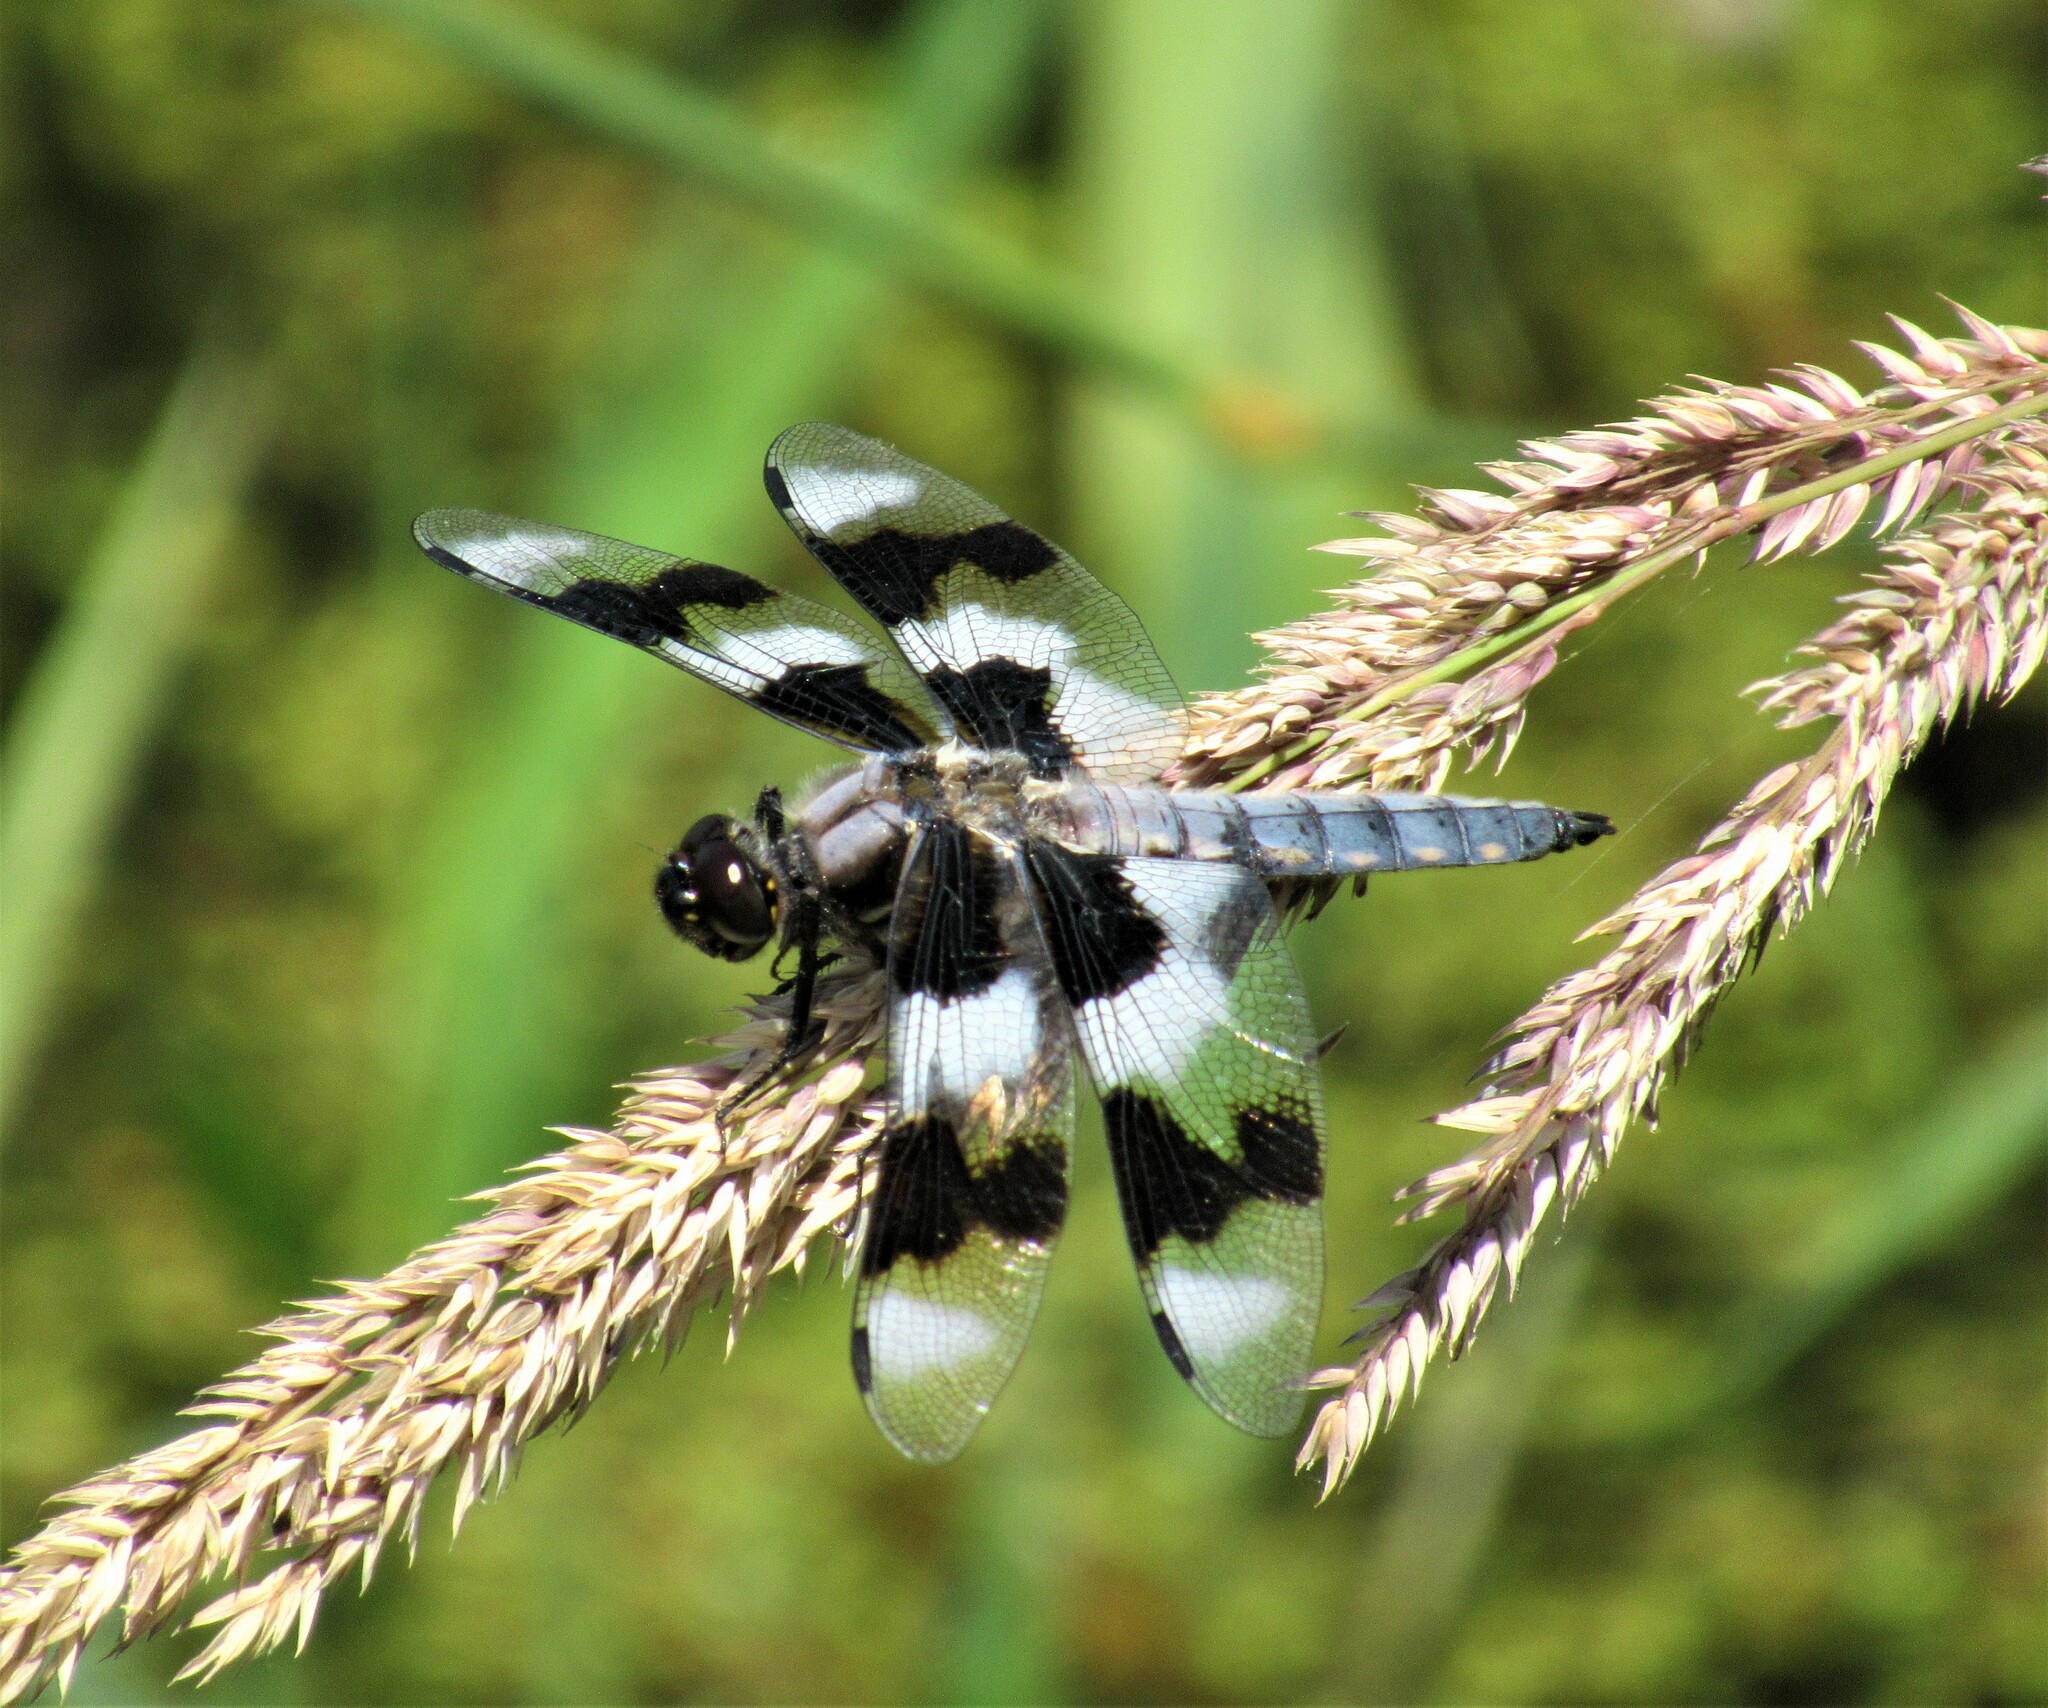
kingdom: Animalia
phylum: Arthropoda
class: Insecta
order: Odonata
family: Libellulidae
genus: Libellula
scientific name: Libellula forensis
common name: Eight-spotted skimmer
